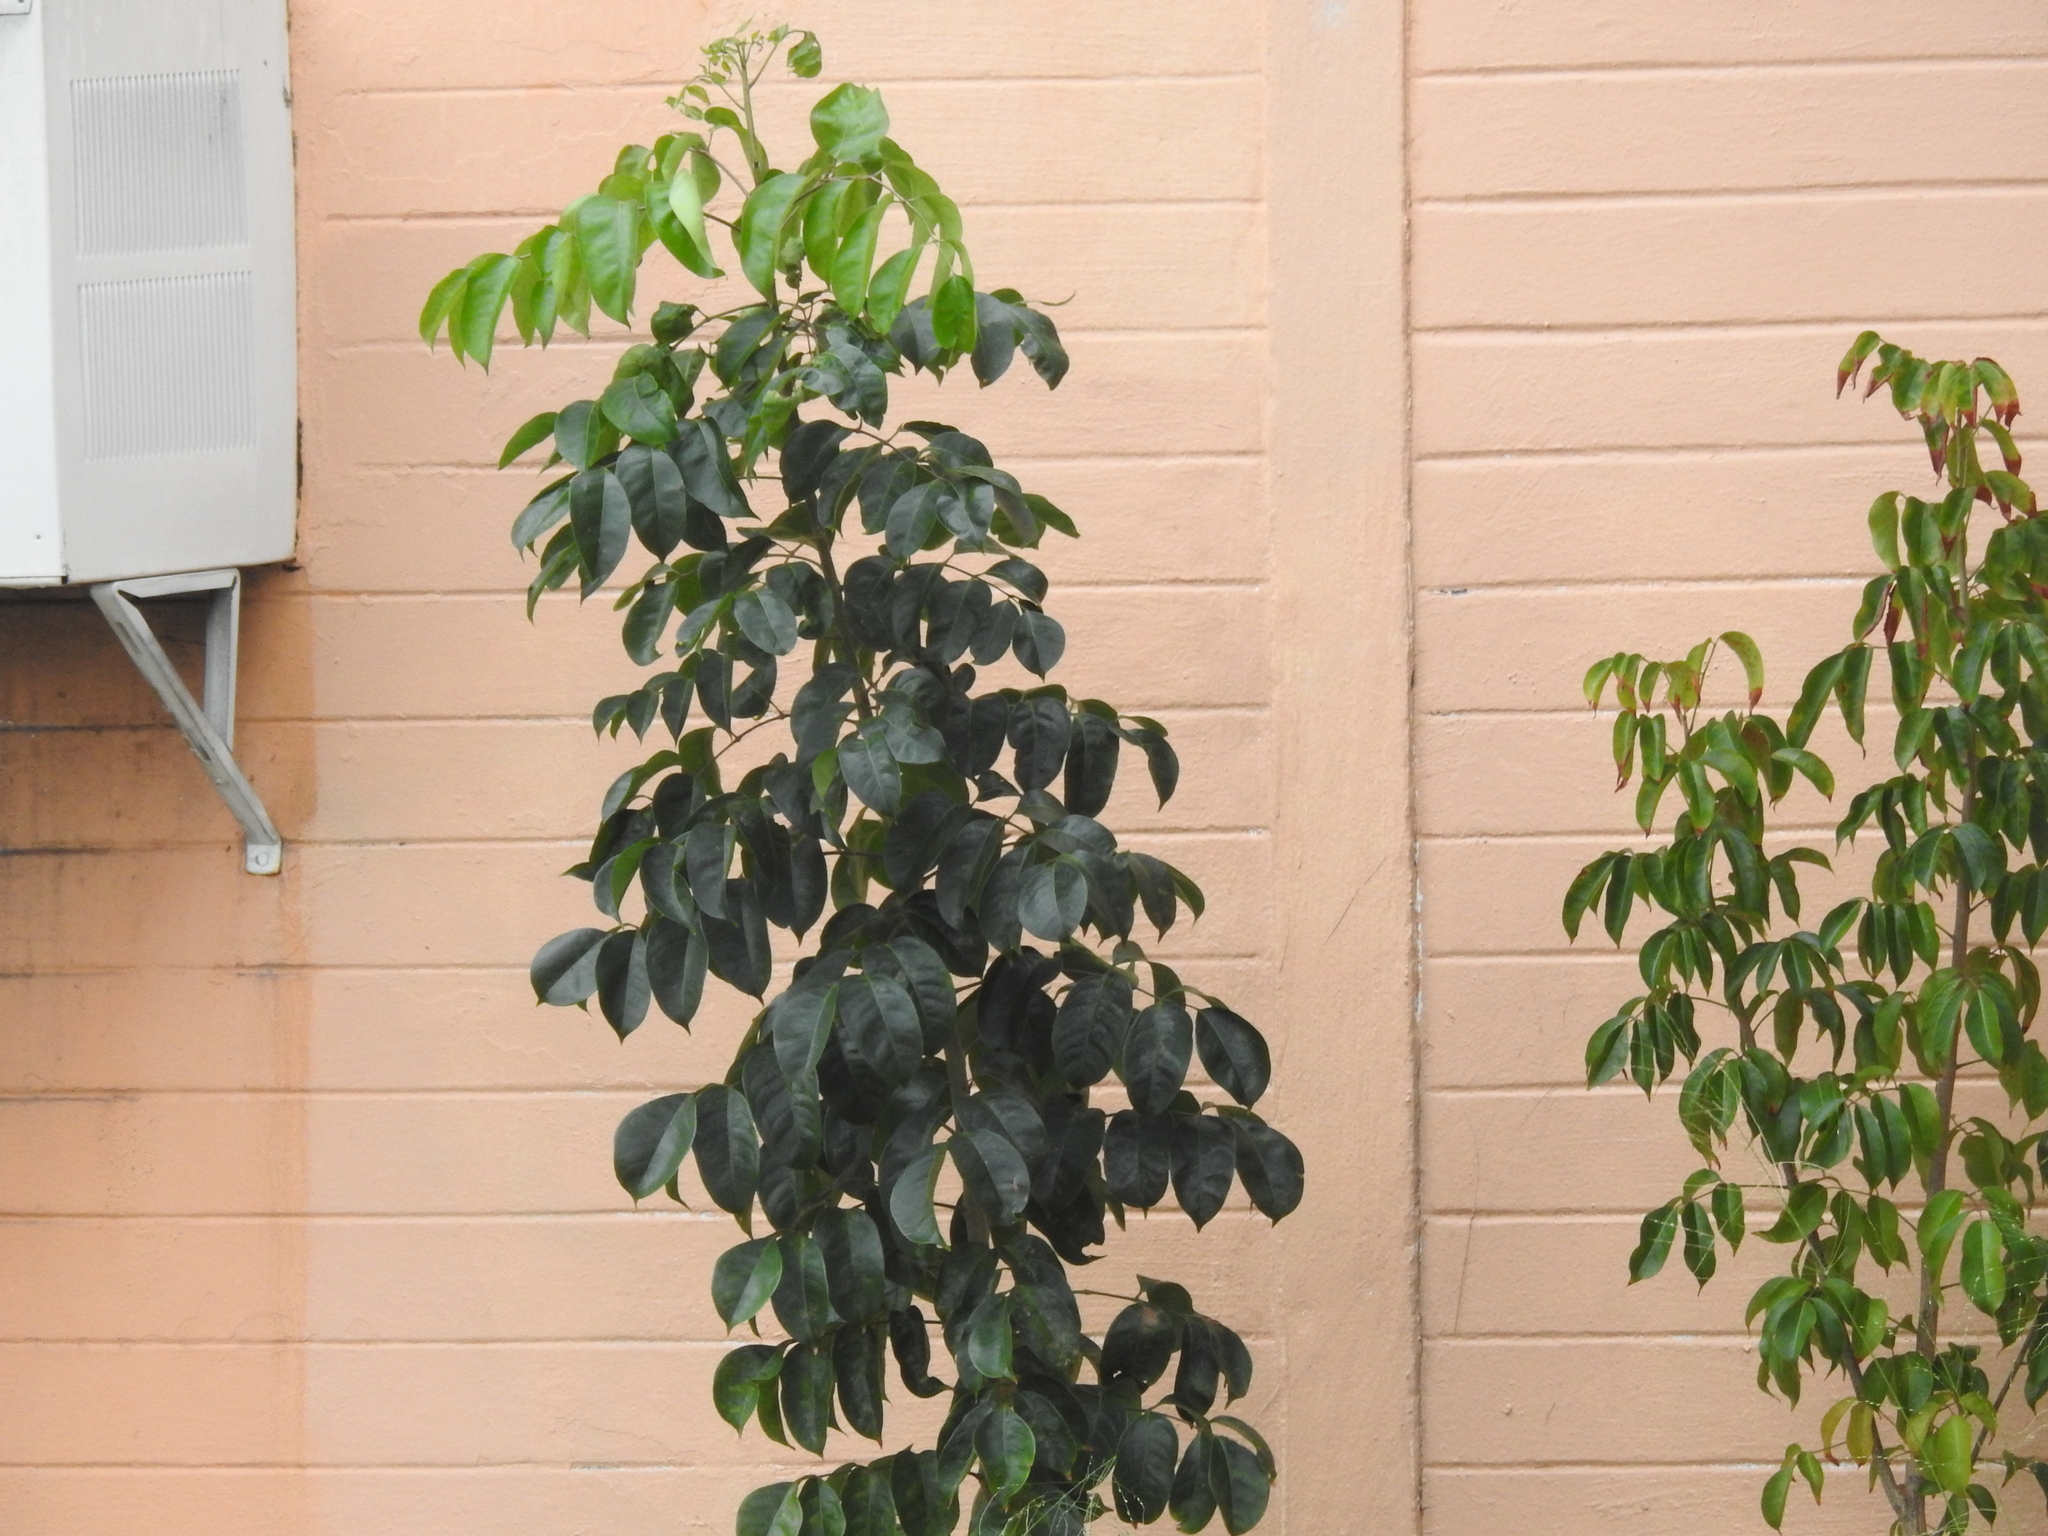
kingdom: Plantae
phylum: Tracheophyta
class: Magnoliopsida
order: Sapindales
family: Burseraceae
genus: Bursera
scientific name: Bursera simaruba
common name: Turpentine tree
